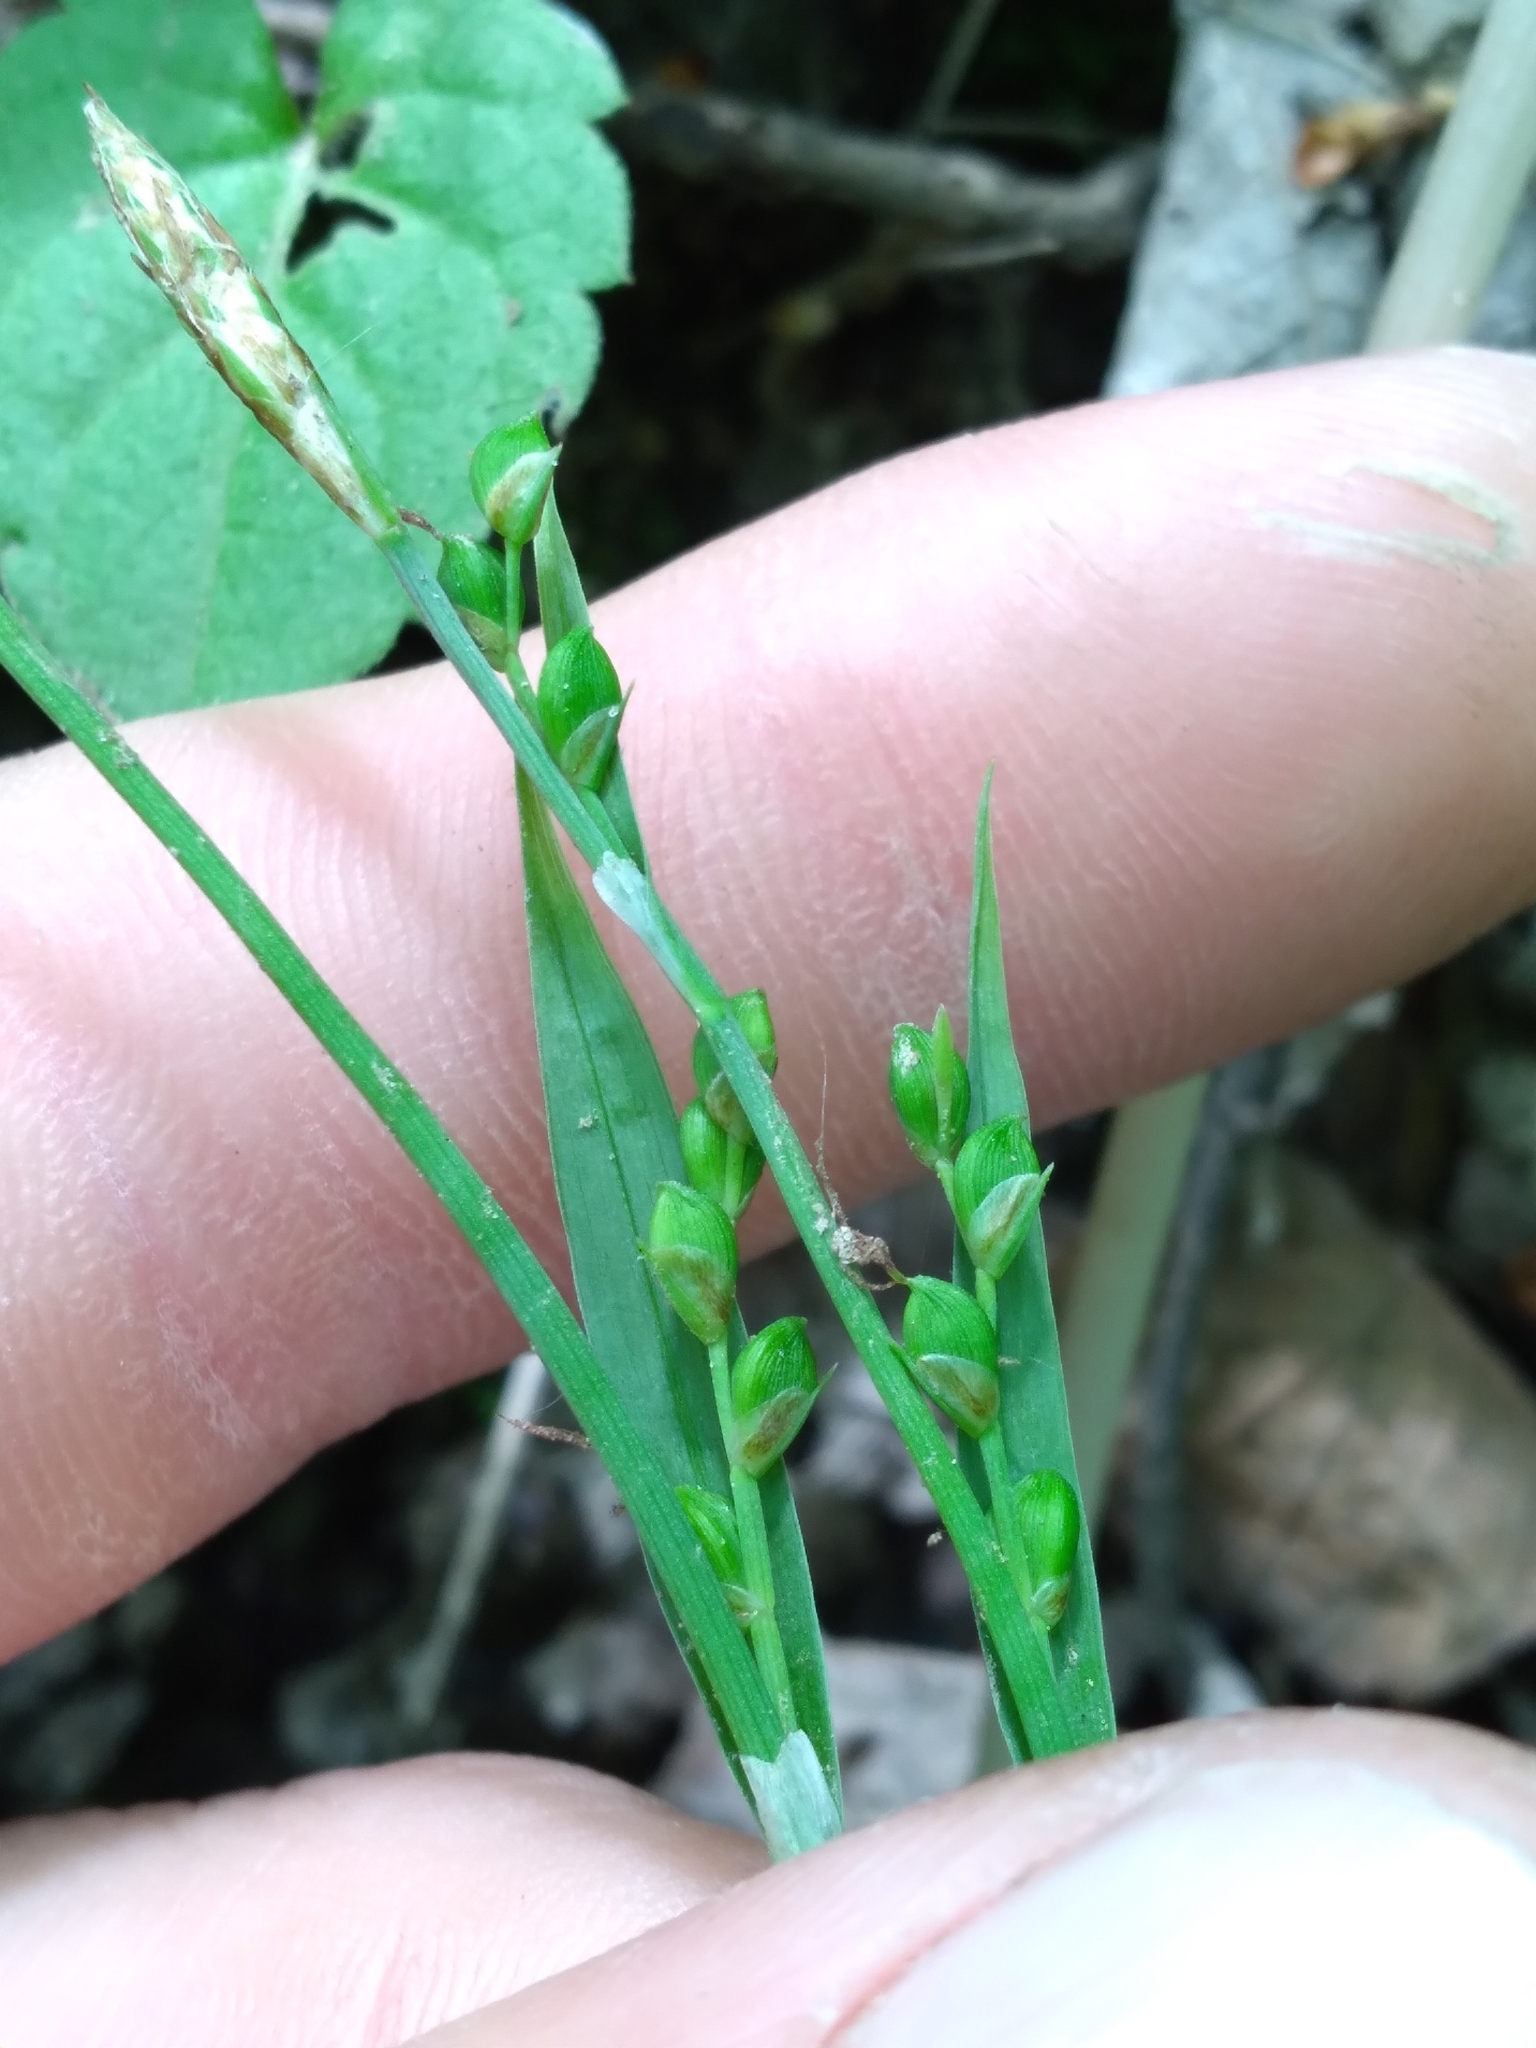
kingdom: Plantae
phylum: Tracheophyta
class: Liliopsida
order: Poales
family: Cyperaceae
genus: Carex
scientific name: Carex platyphylla
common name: Broad-leaved sedge
